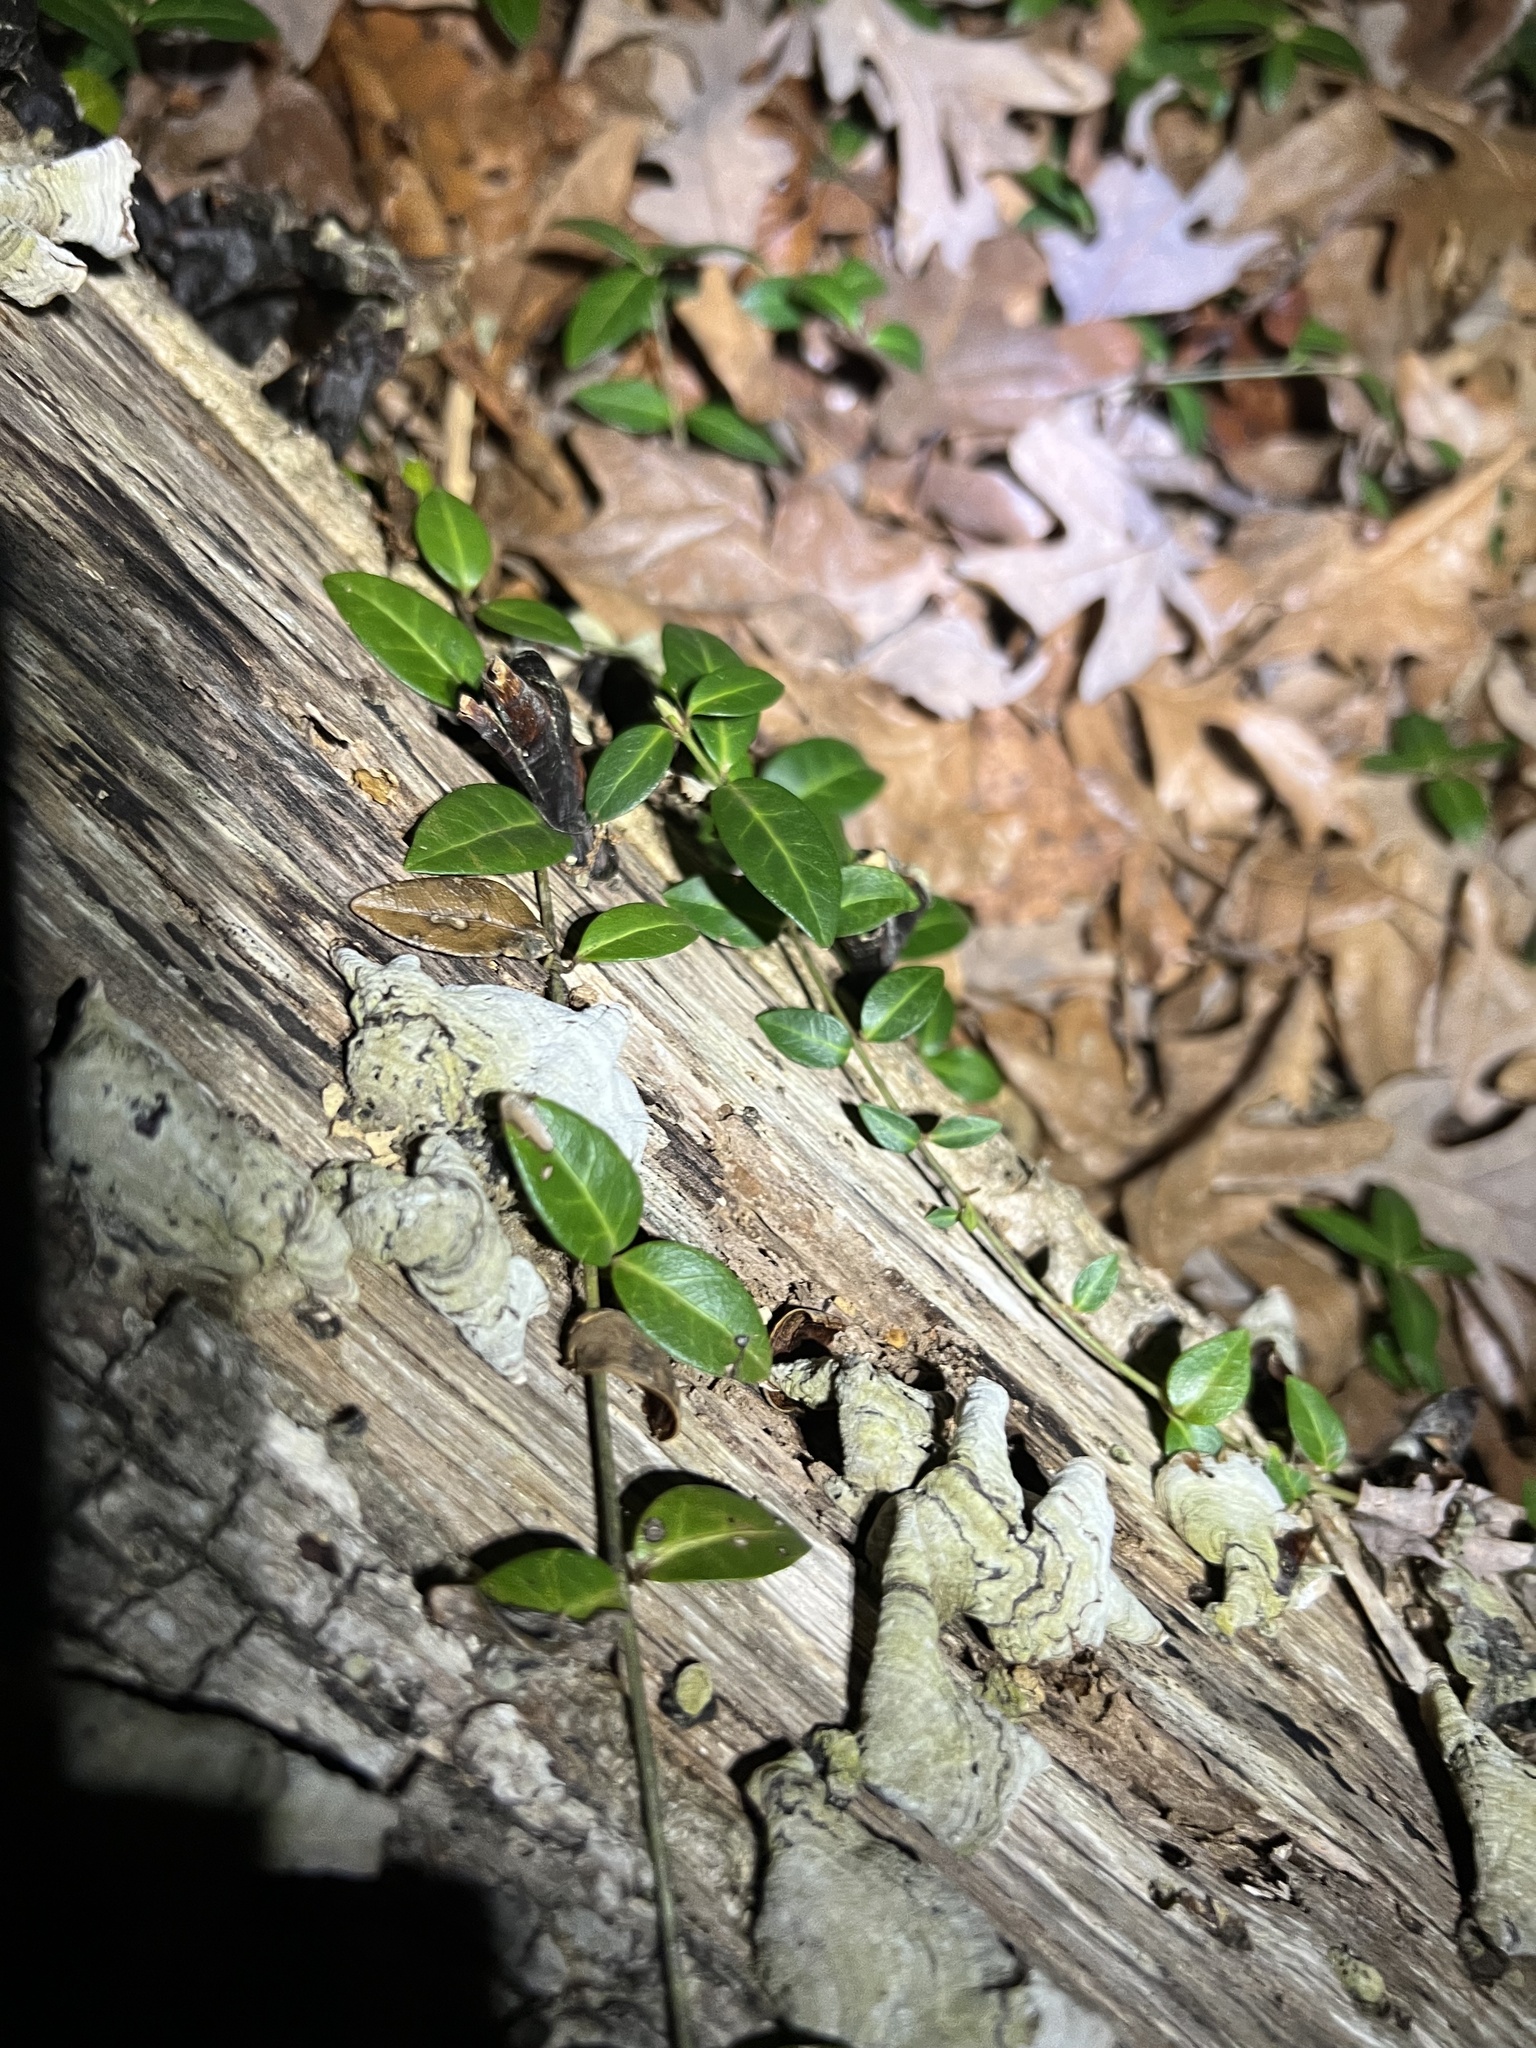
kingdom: Plantae
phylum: Tracheophyta
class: Magnoliopsida
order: Gentianales
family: Apocynaceae
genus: Vinca
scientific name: Vinca minor
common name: Lesser periwinkle
